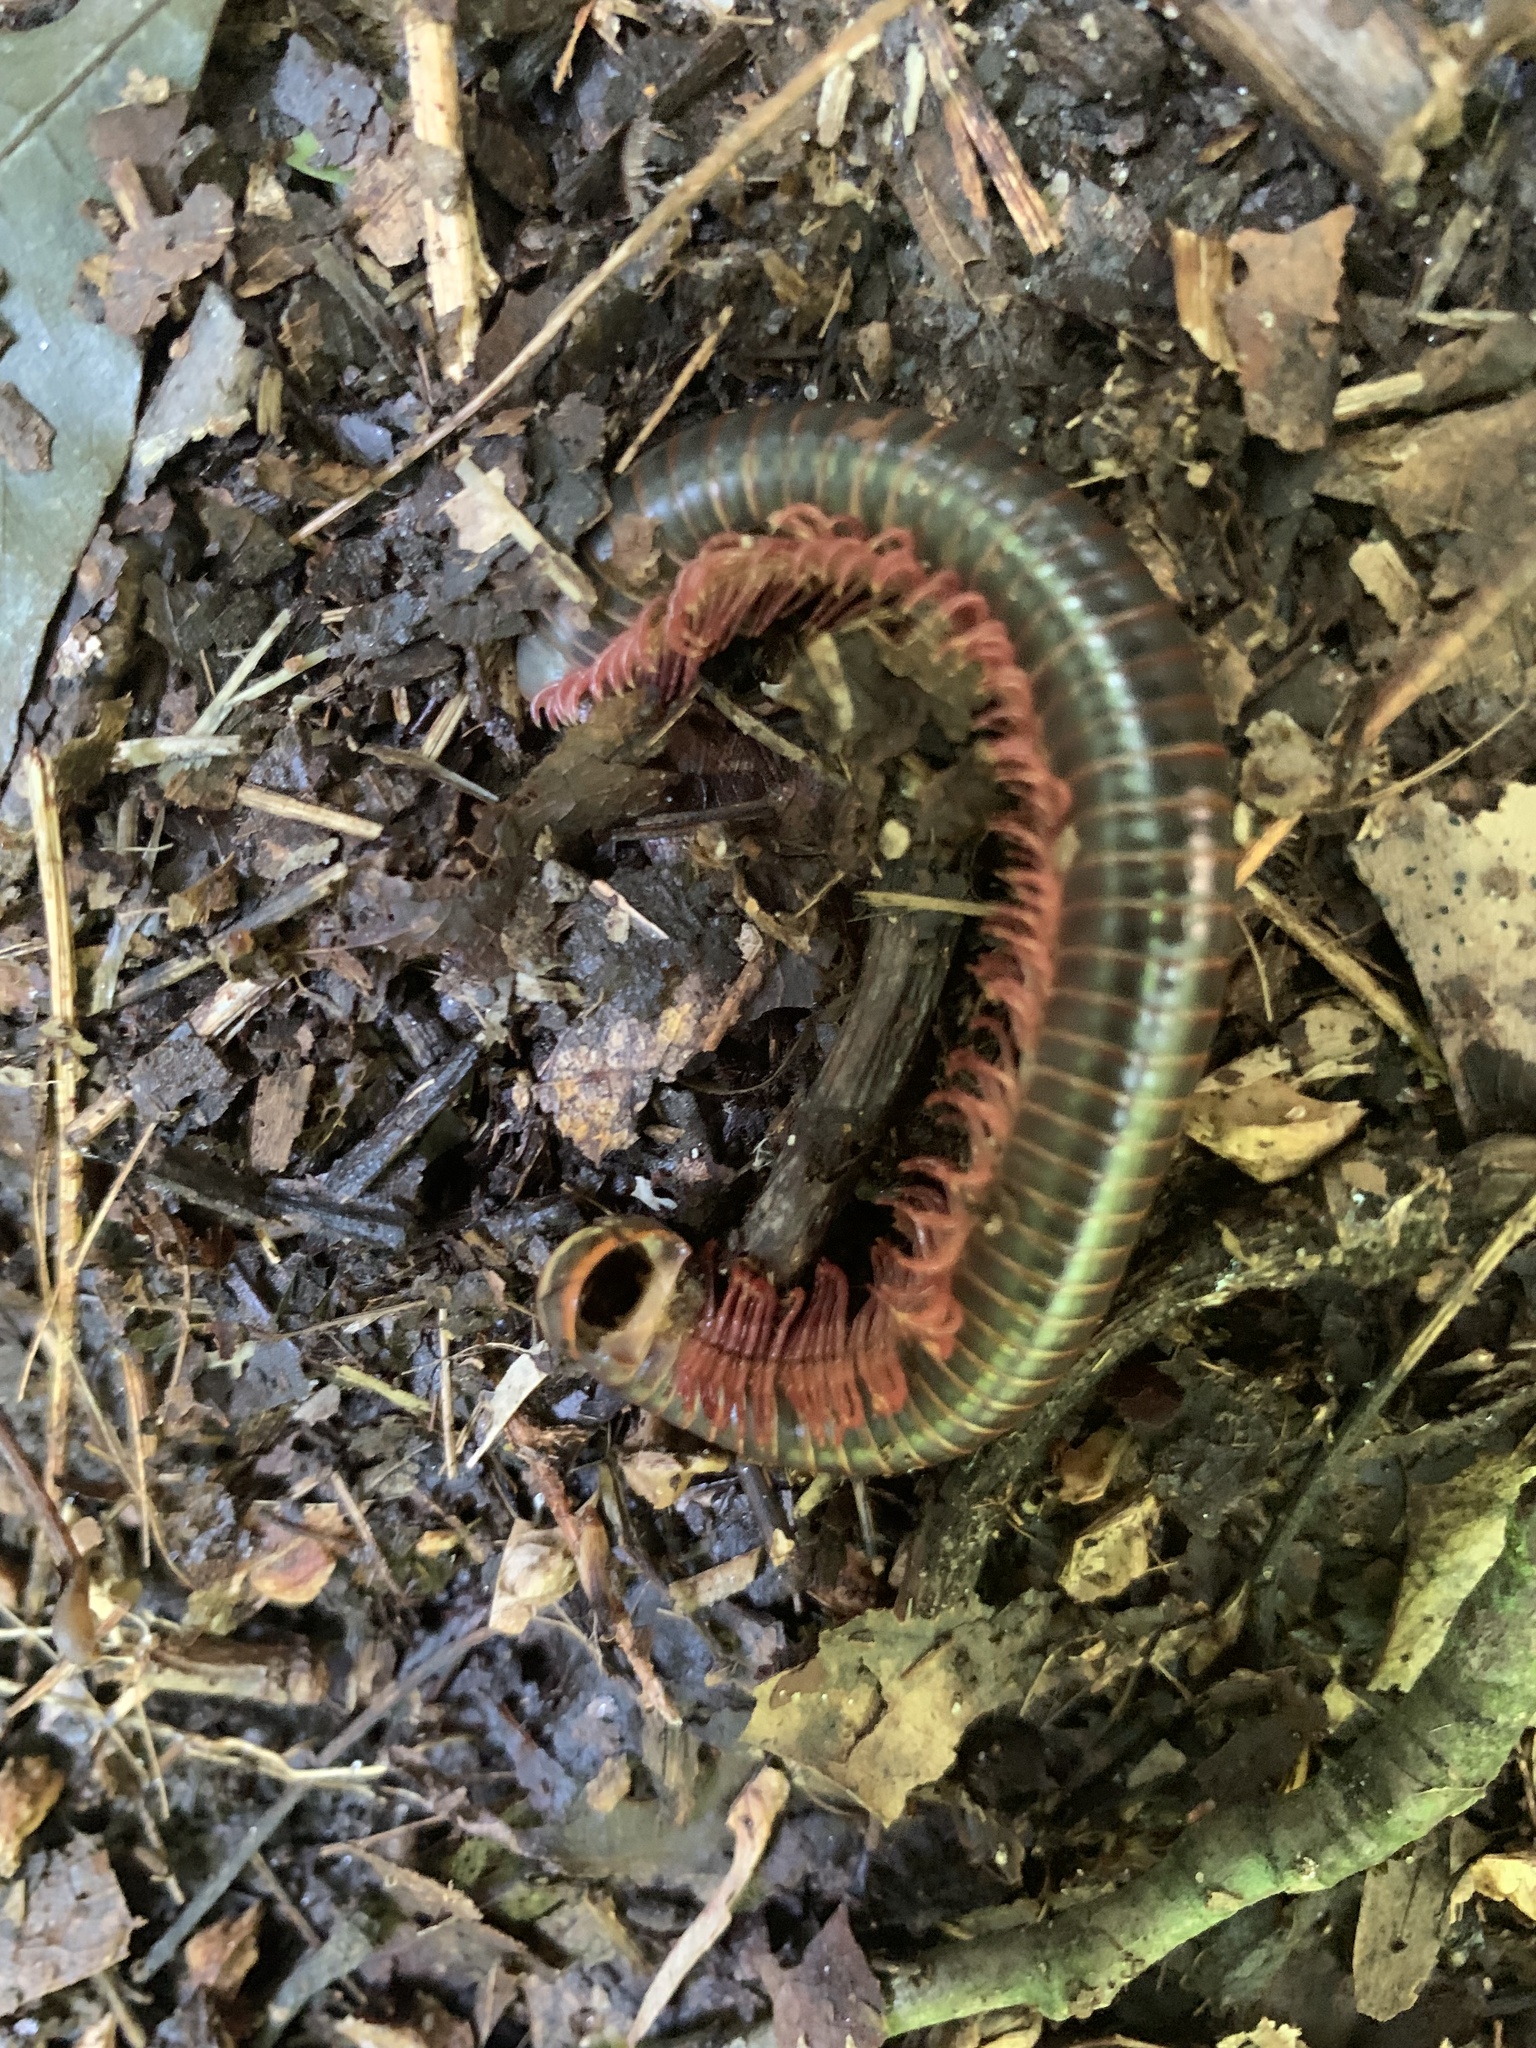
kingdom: Animalia
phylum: Arthropoda
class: Diplopoda
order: Spirobolida
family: Spirobolidae
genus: Narceus
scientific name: Narceus americanus
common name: American giant millipede
